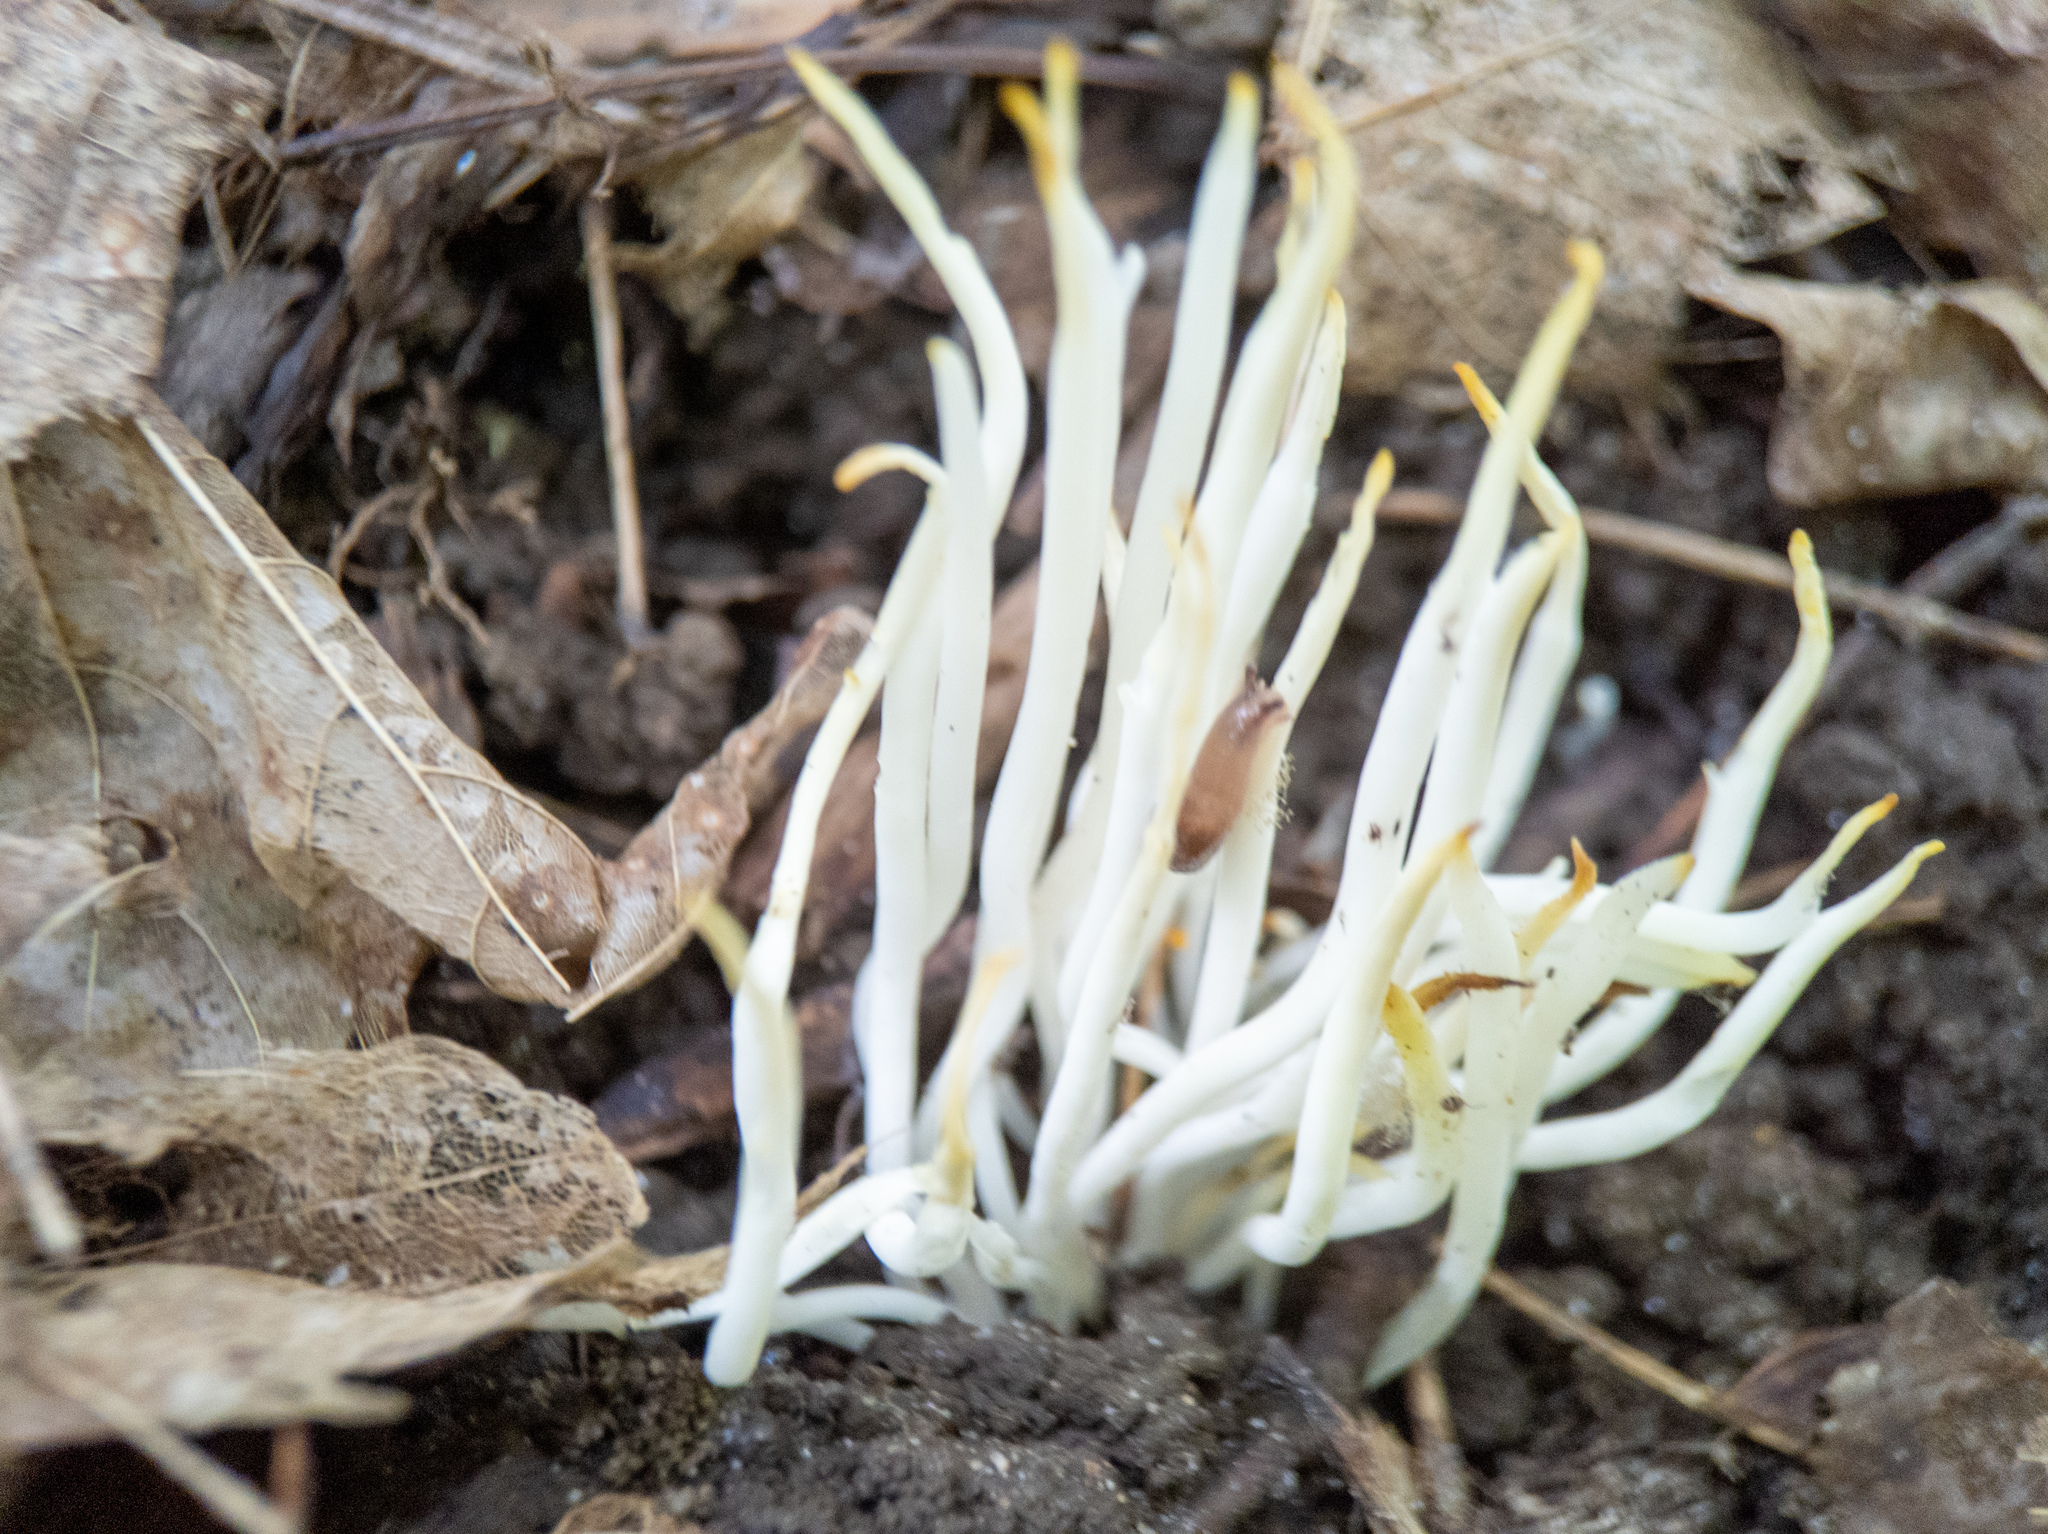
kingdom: Fungi
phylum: Basidiomycota
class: Agaricomycetes
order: Agaricales
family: Clavariaceae
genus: Clavaria
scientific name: Clavaria fragilis
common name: White spindles
